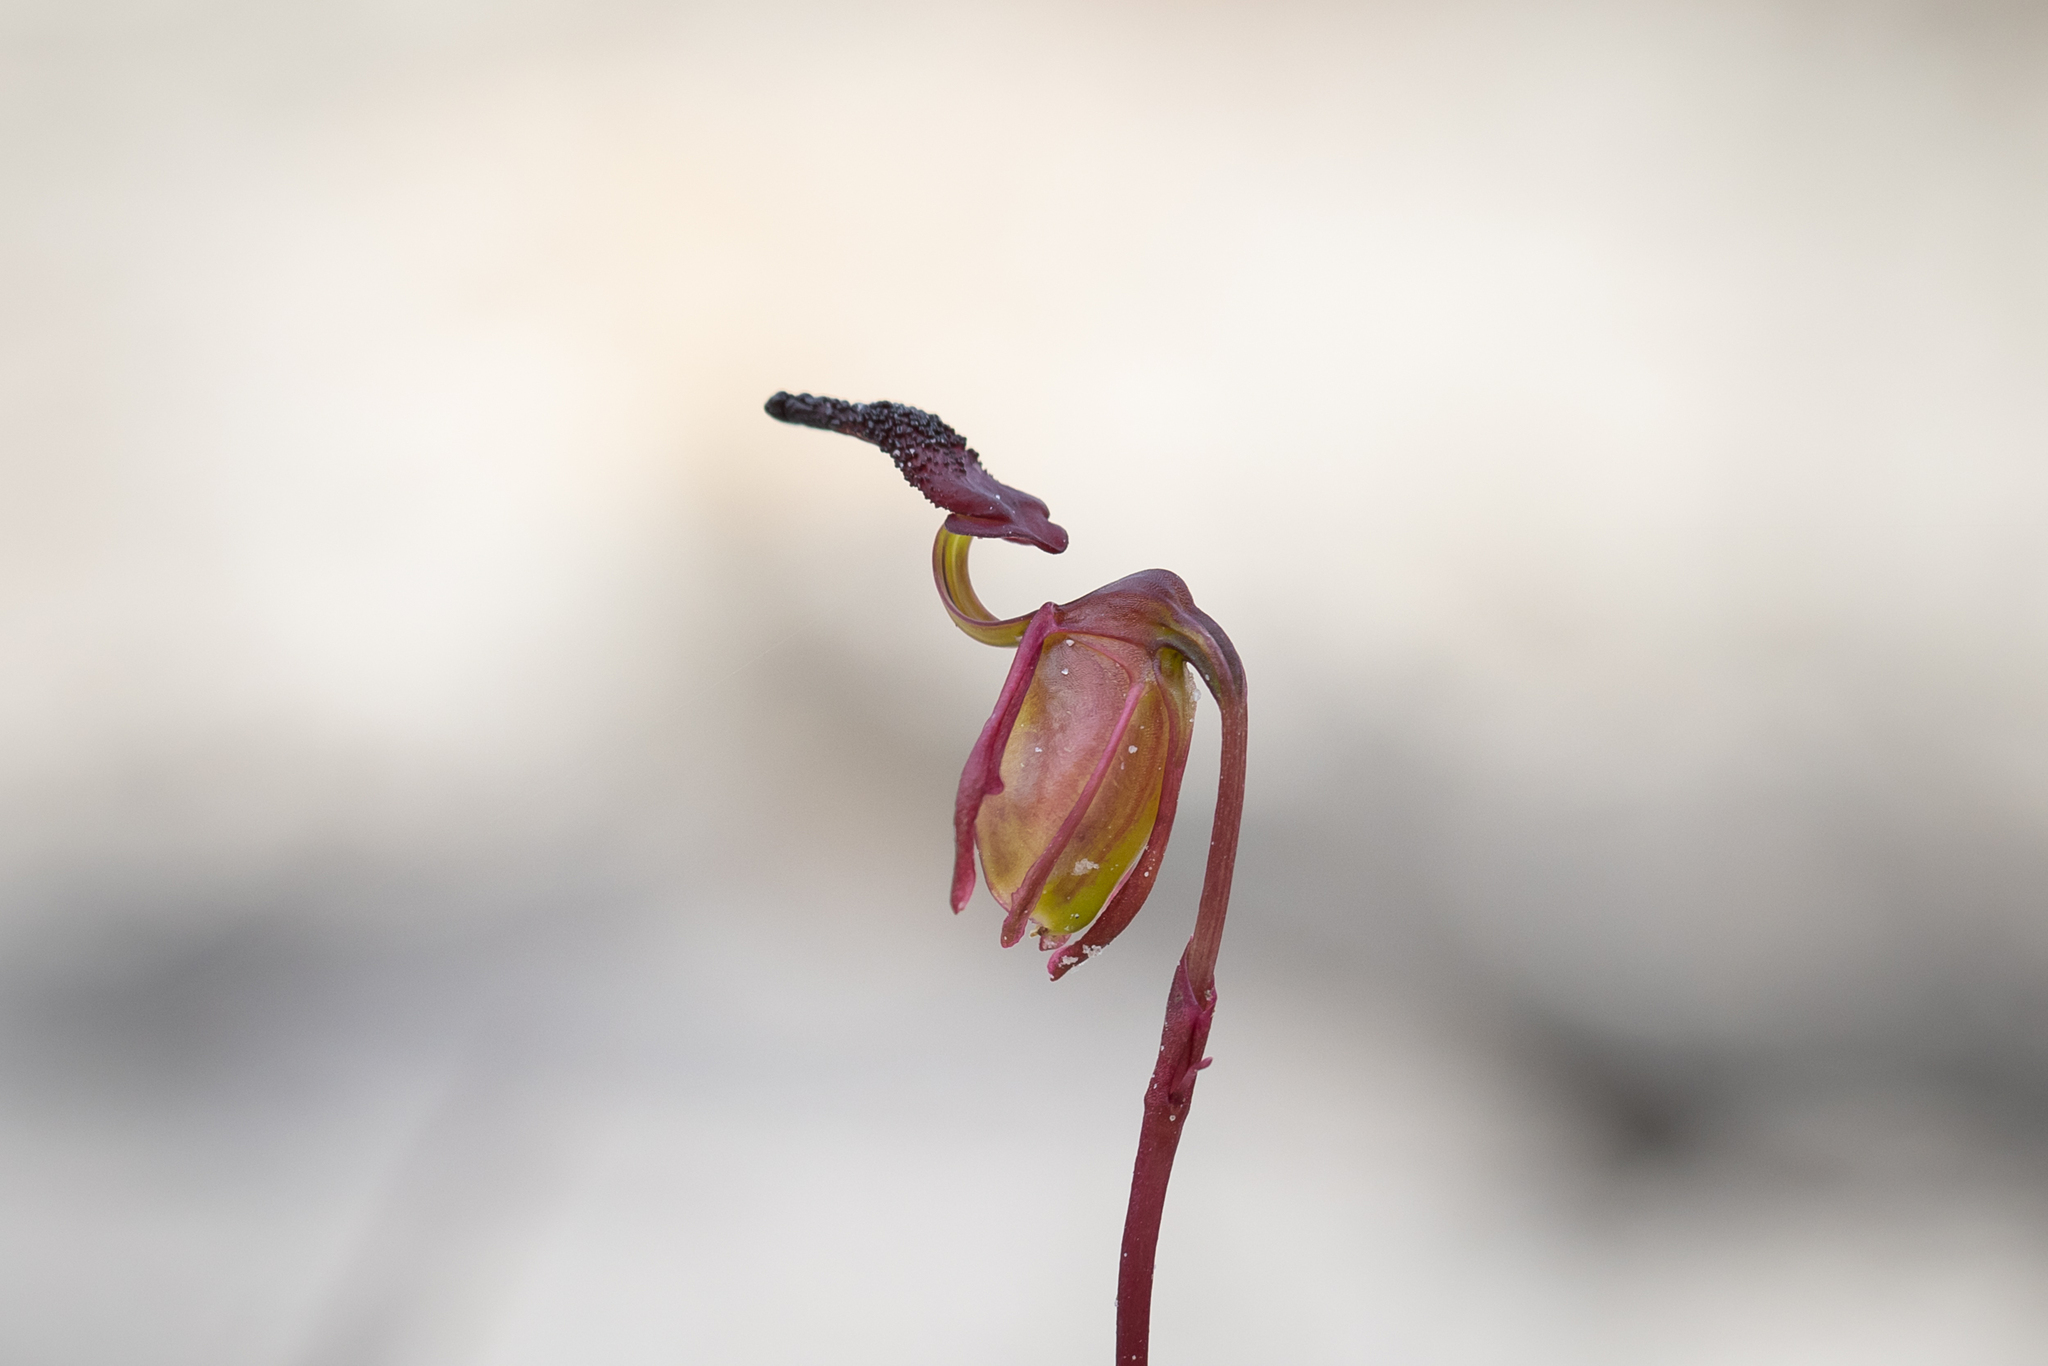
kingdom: Plantae
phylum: Tracheophyta
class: Liliopsida
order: Asparagales
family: Orchidaceae
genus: Caleana
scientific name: Caleana nigrita
